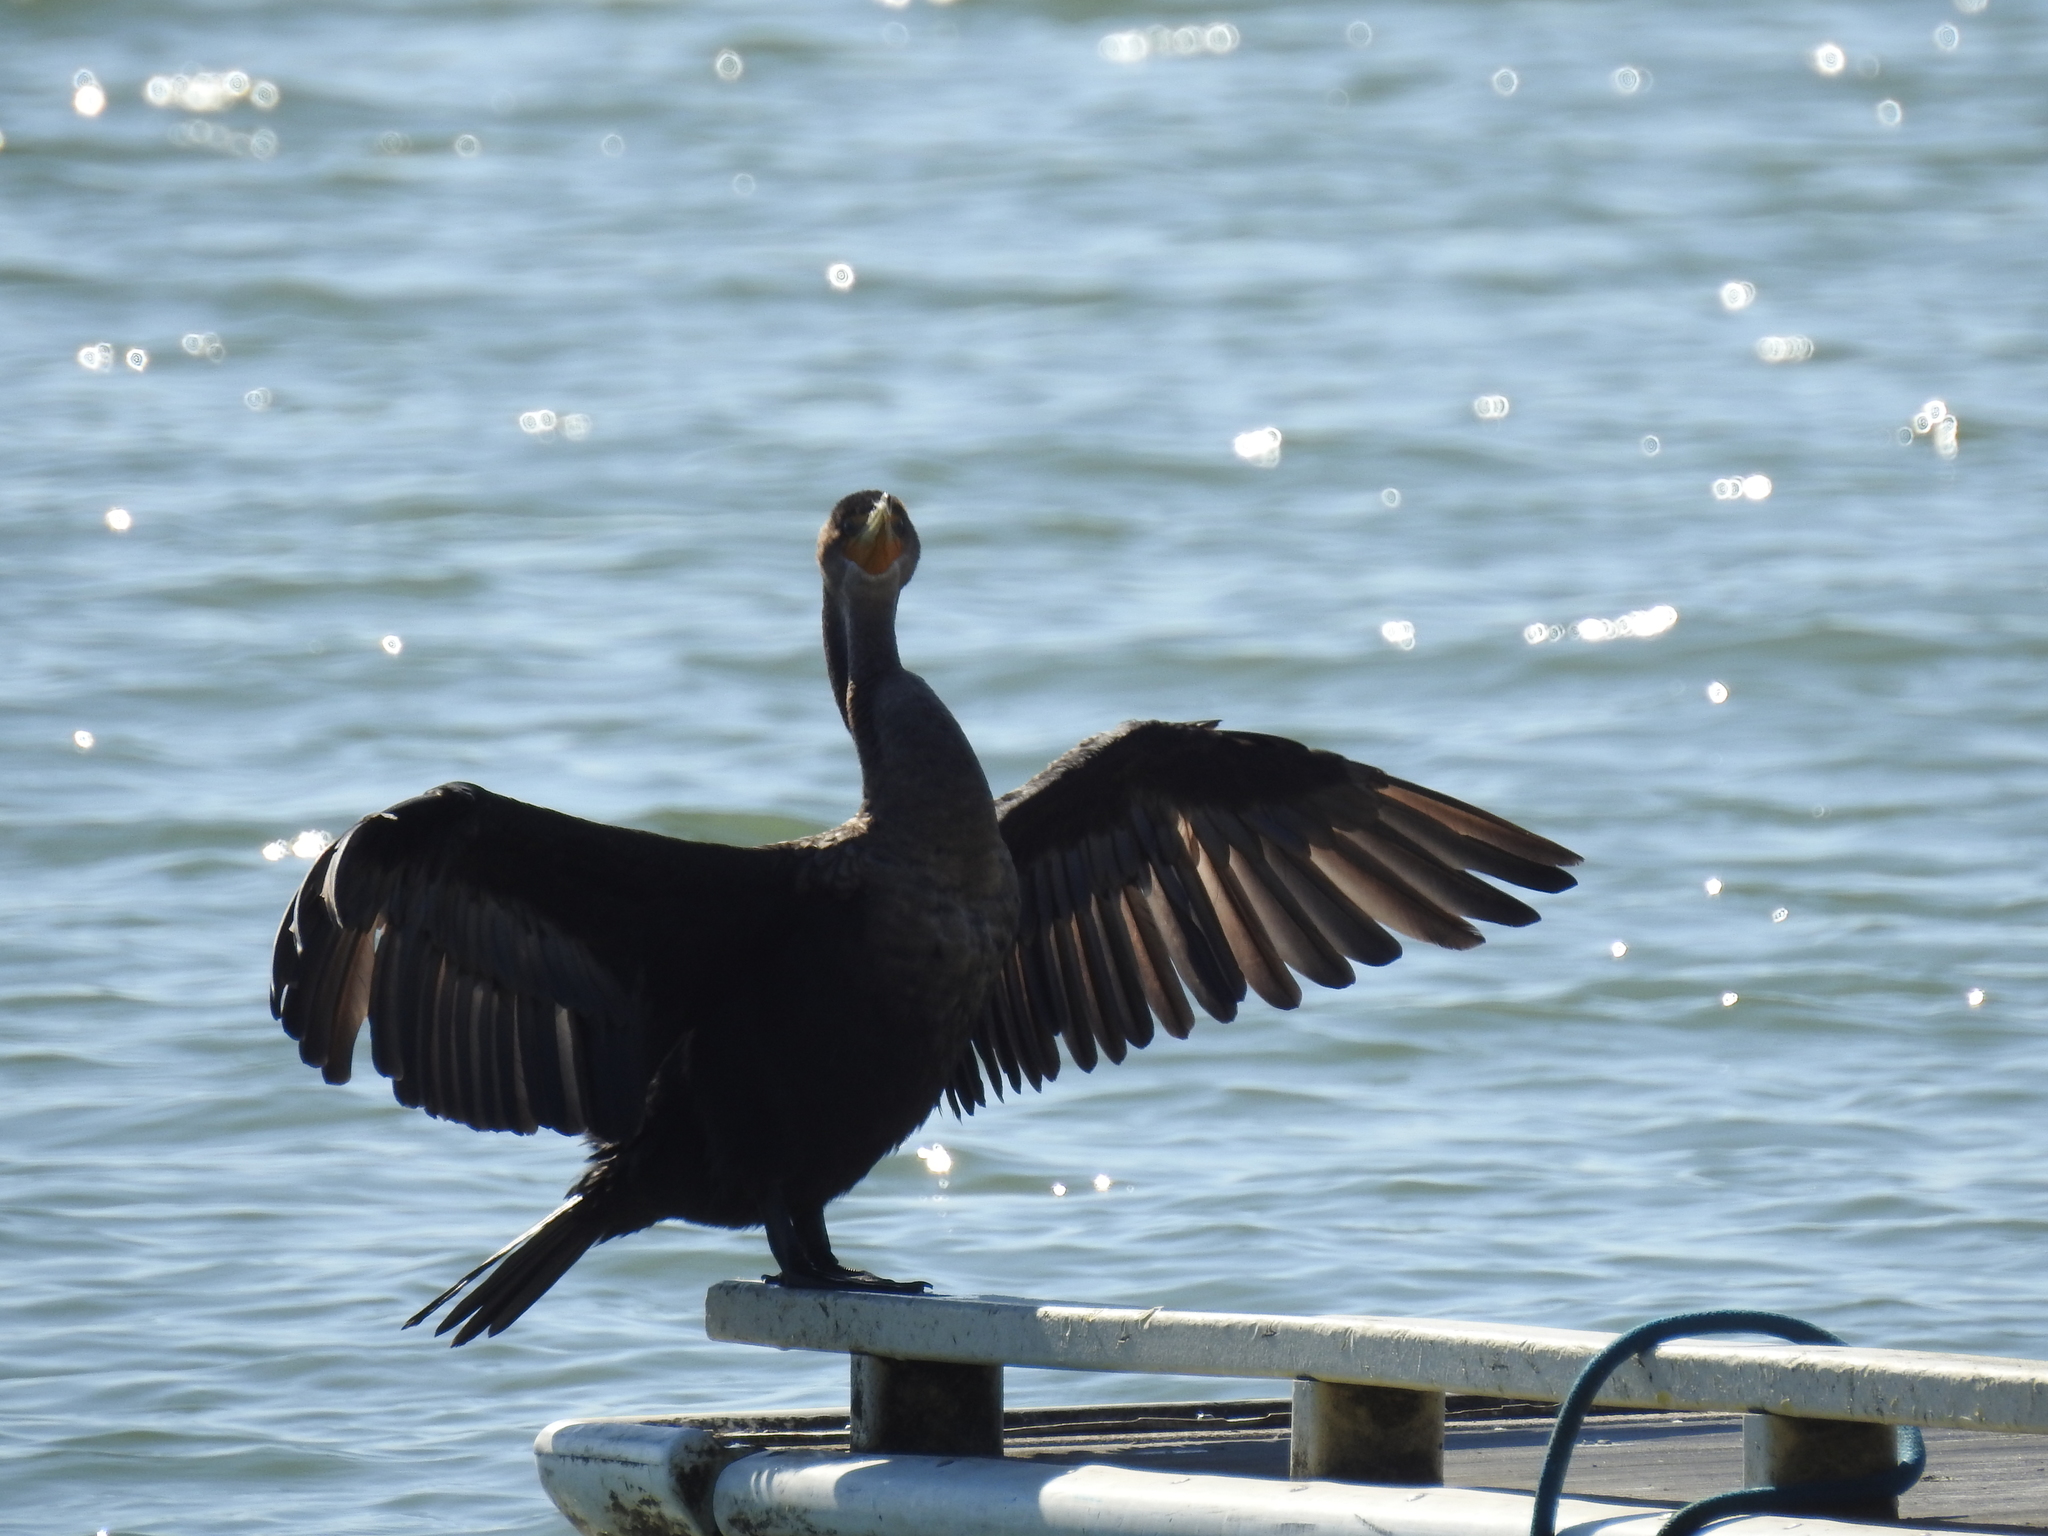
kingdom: Animalia
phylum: Chordata
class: Aves
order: Suliformes
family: Phalacrocoracidae
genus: Phalacrocorax
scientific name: Phalacrocorax auritus
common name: Double-crested cormorant
